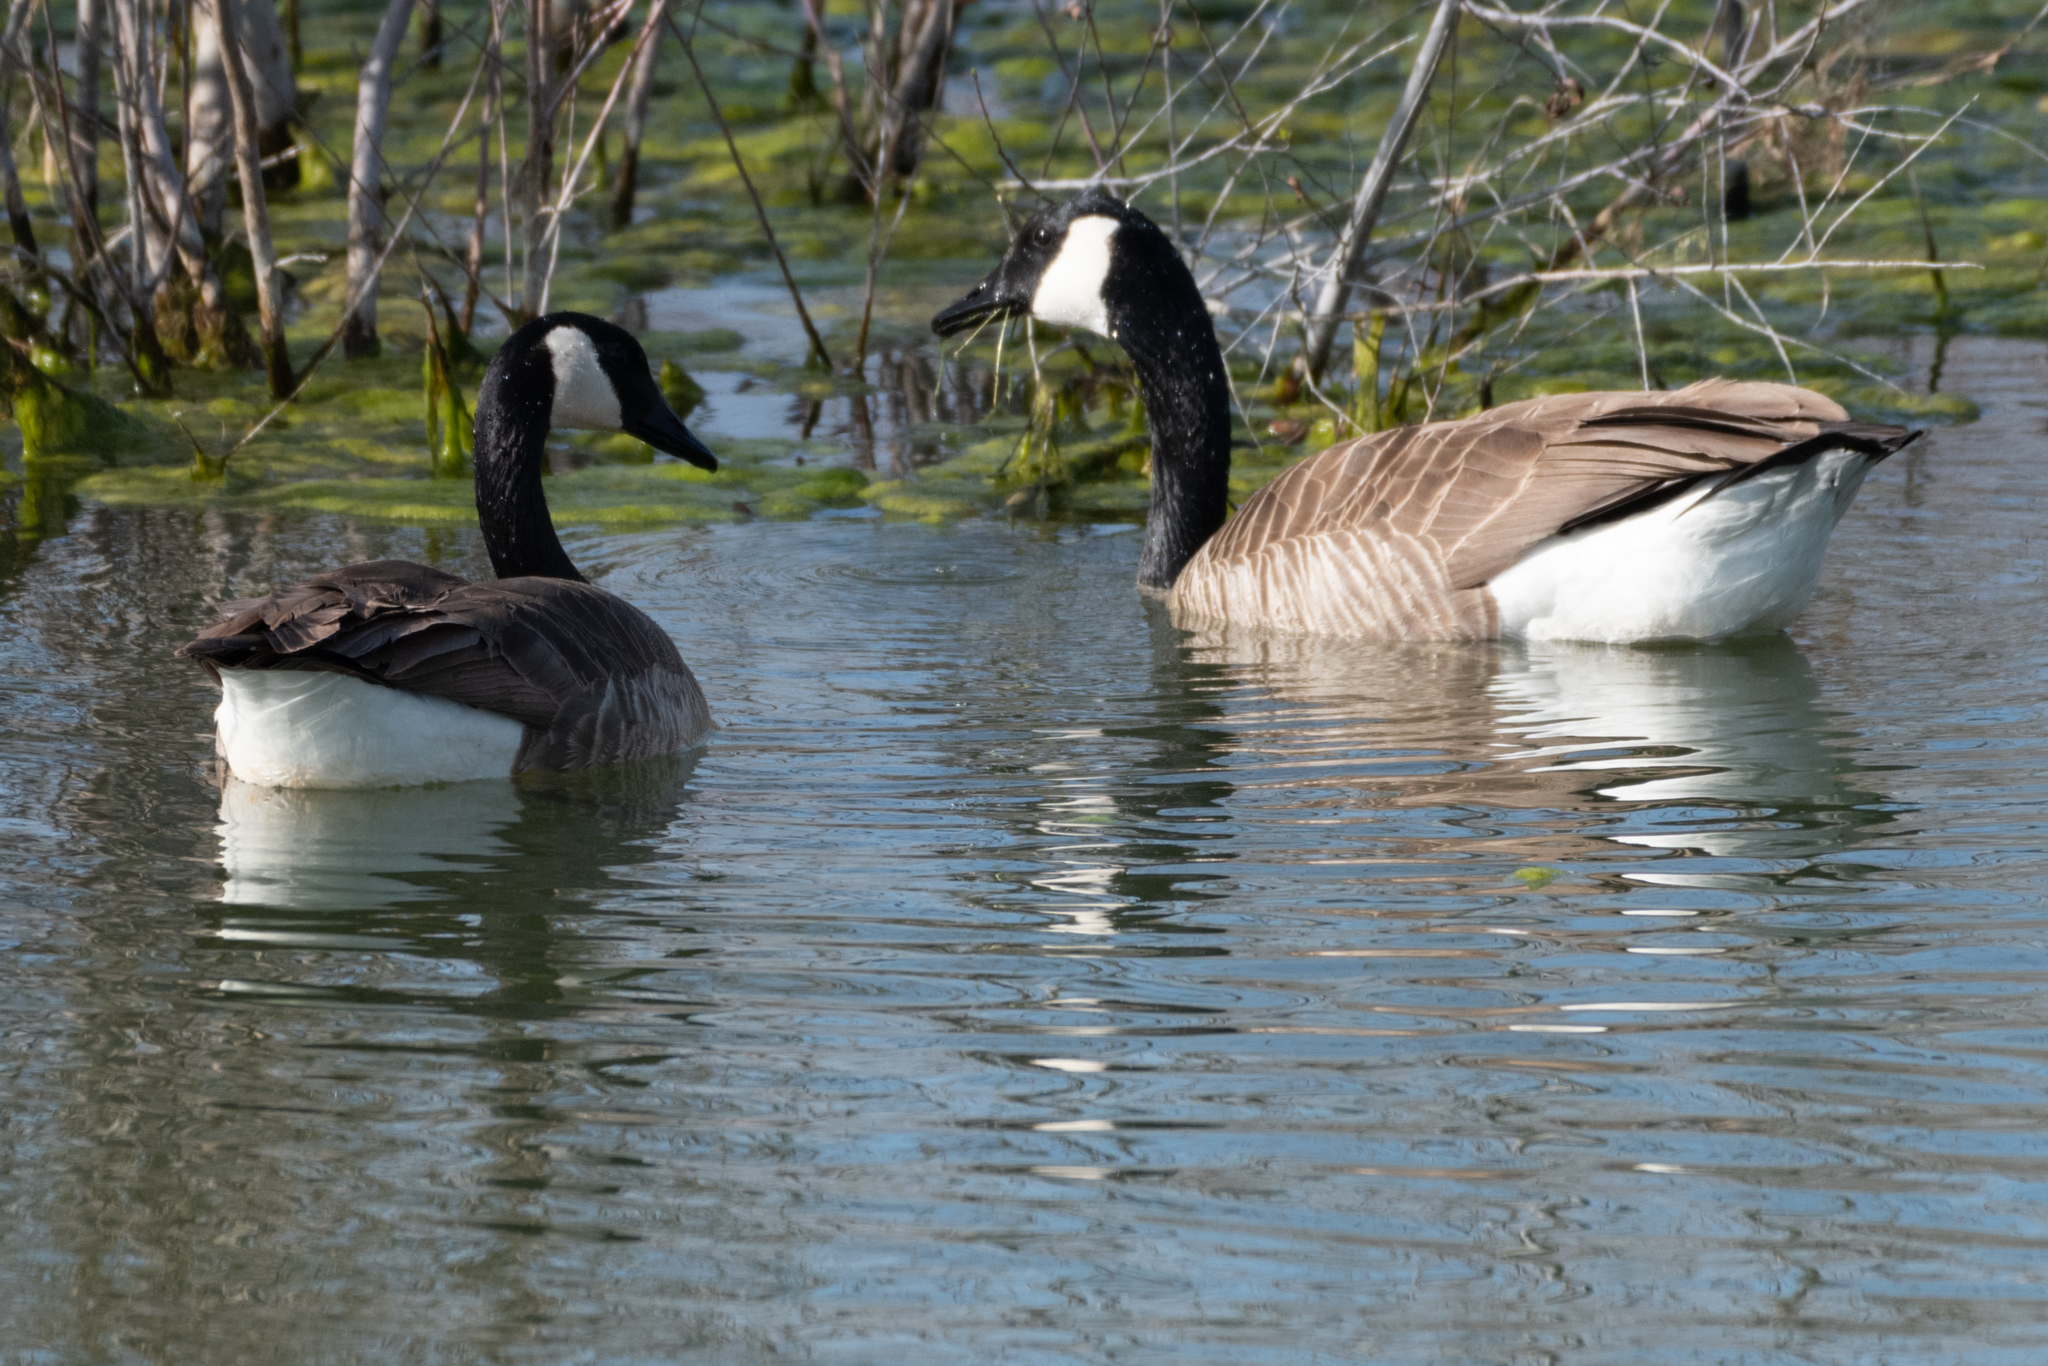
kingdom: Animalia
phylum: Chordata
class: Aves
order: Anseriformes
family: Anatidae
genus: Branta
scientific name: Branta canadensis
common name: Canada goose
